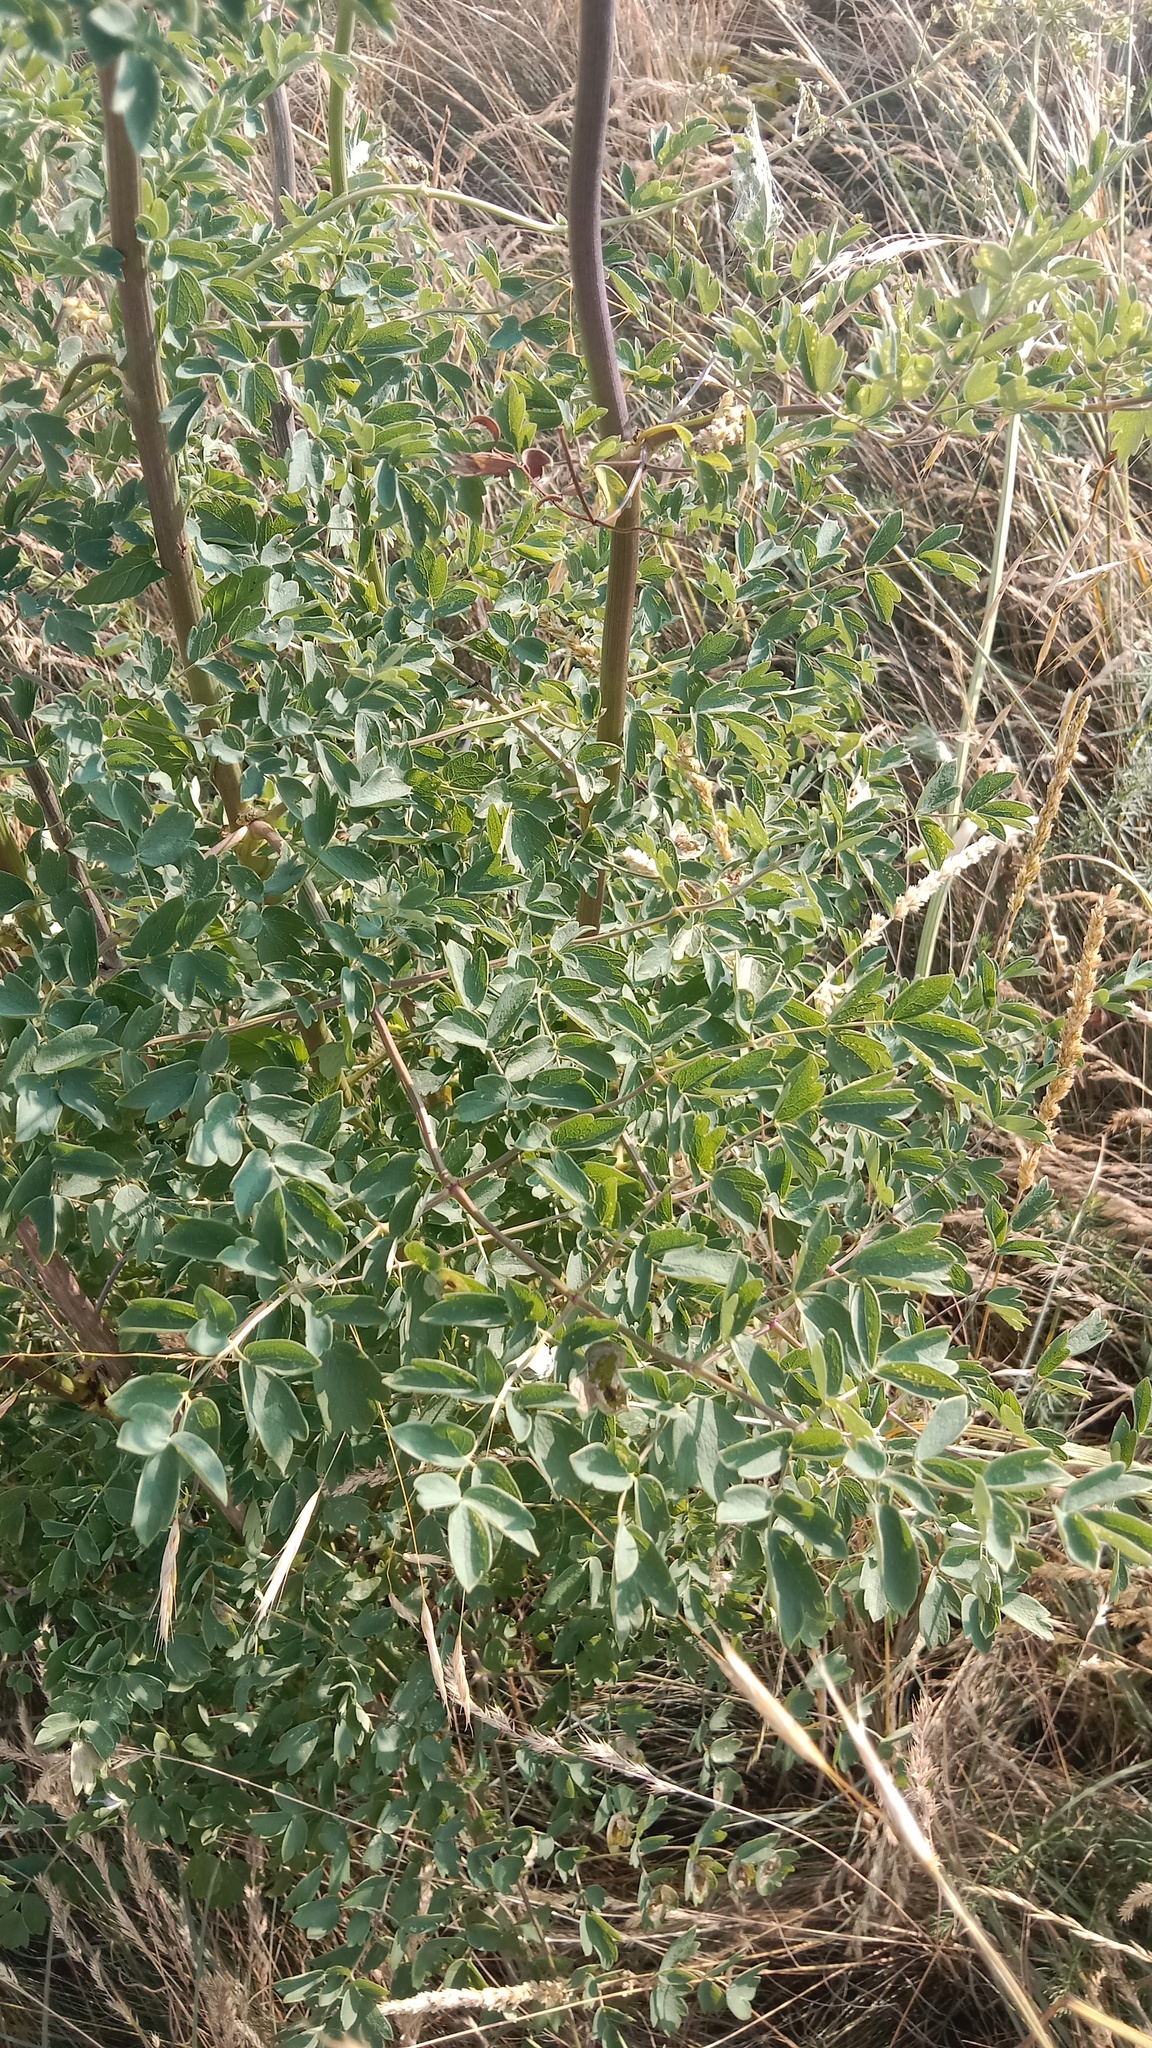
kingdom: Plantae
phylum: Tracheophyta
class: Magnoliopsida
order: Ranunculales
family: Ranunculaceae
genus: Thalictrum
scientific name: Thalictrum minus
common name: Lesser meadow-rue
